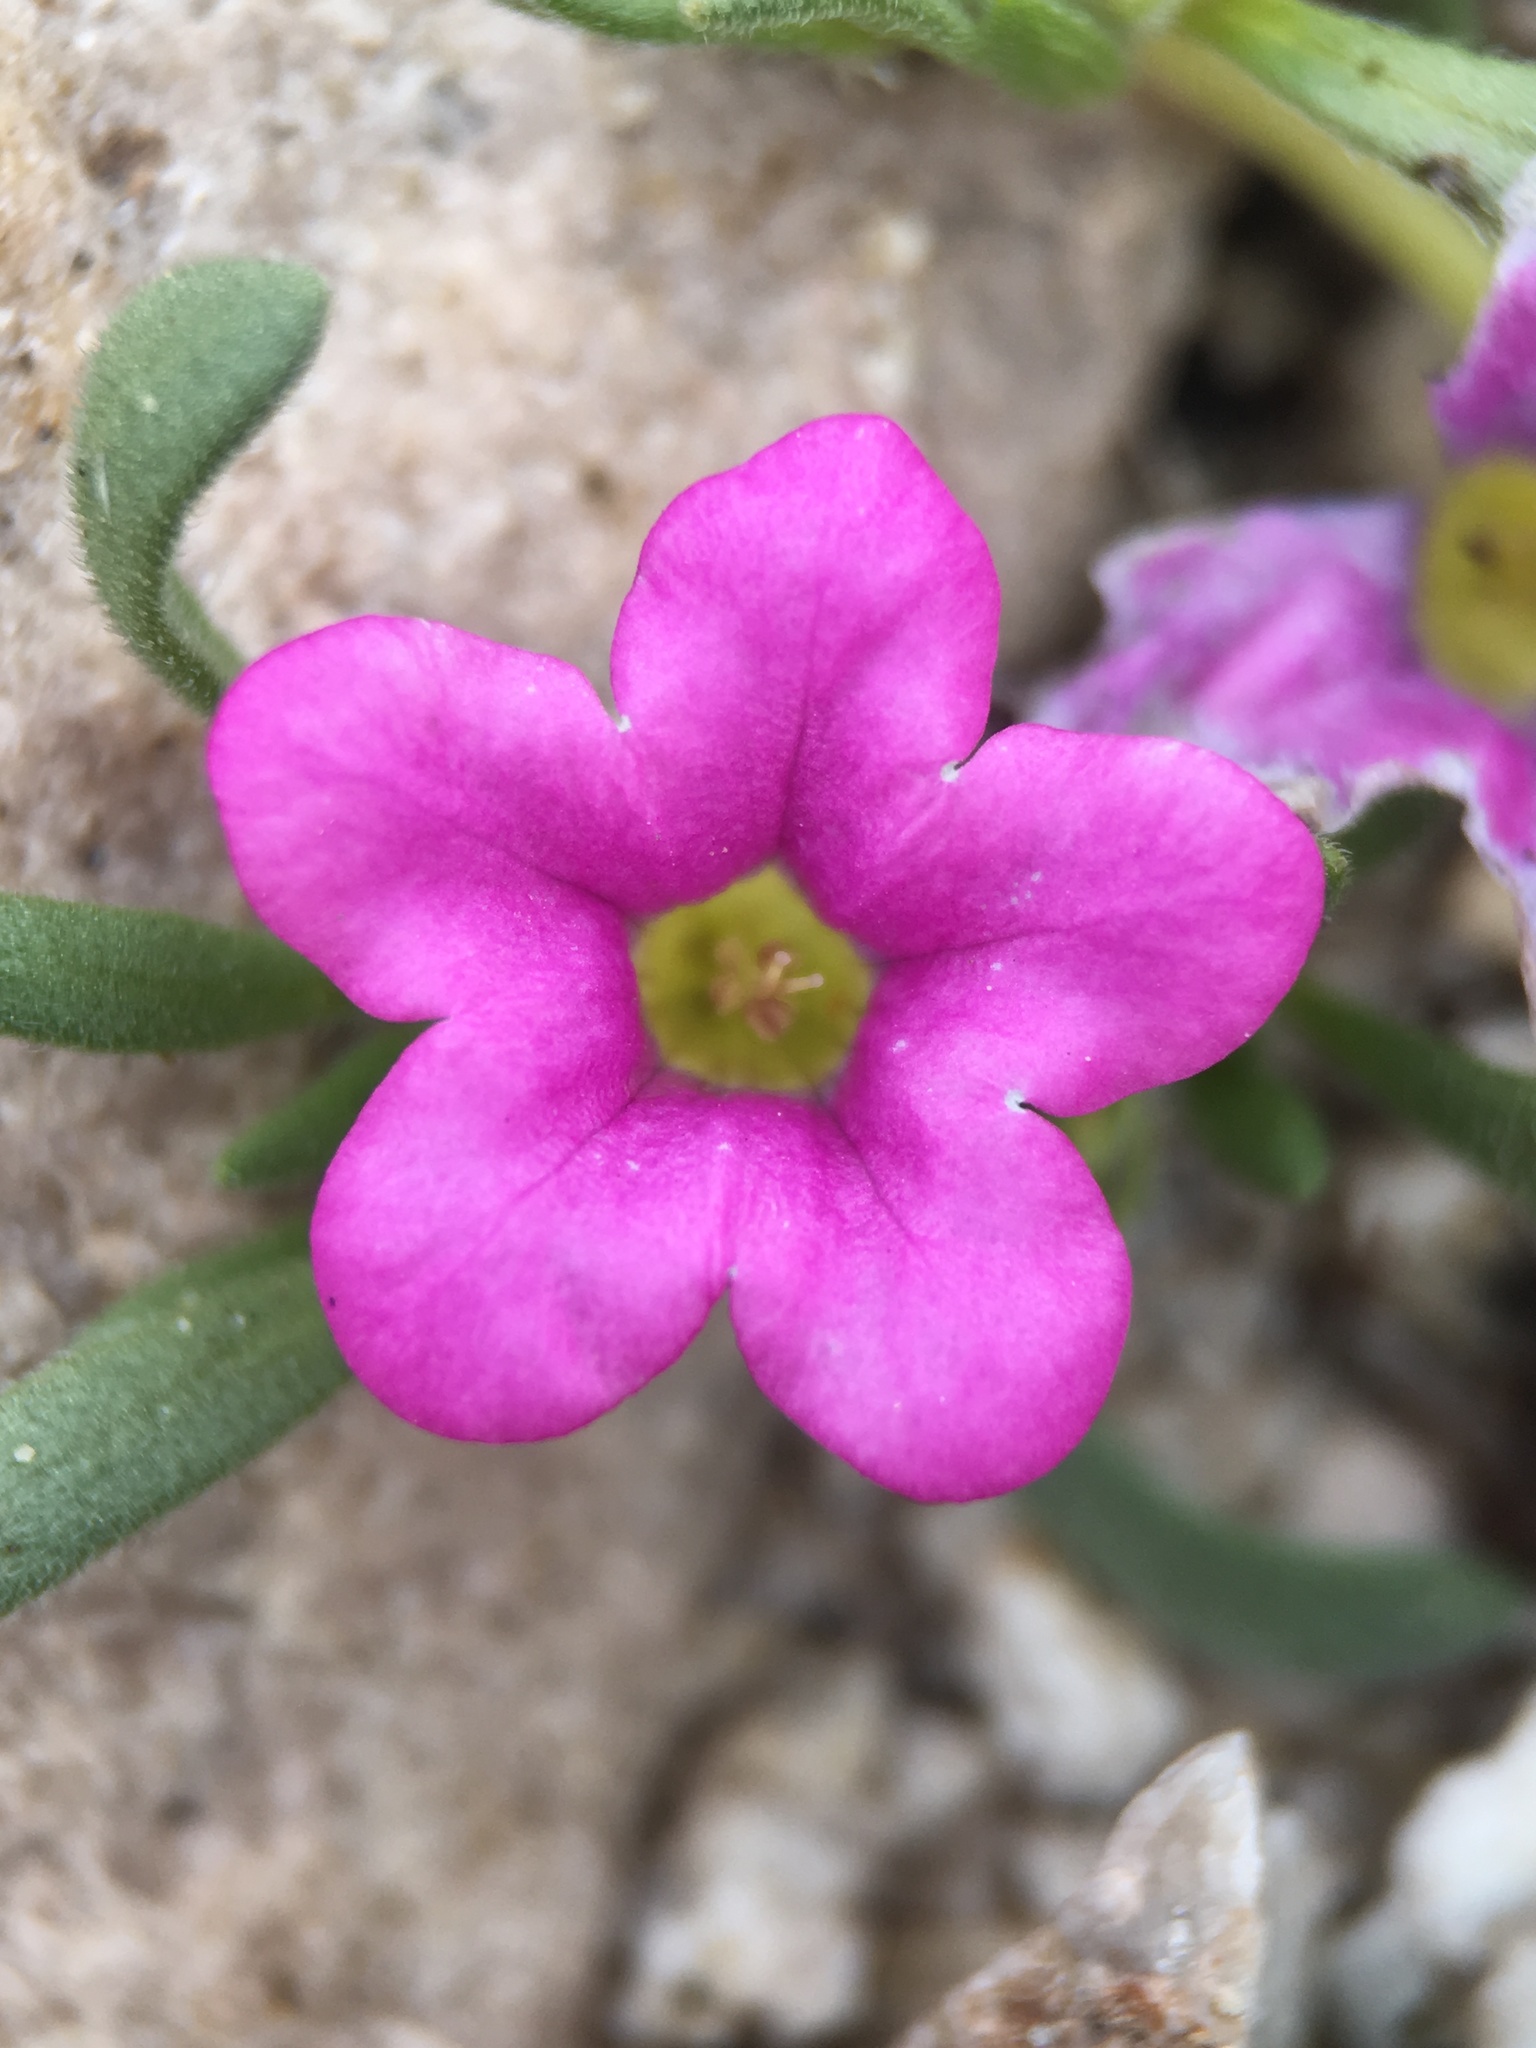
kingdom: Plantae
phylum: Tracheophyta
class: Magnoliopsida
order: Boraginales
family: Namaceae
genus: Nama
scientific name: Nama demissa
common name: Leafy nama
